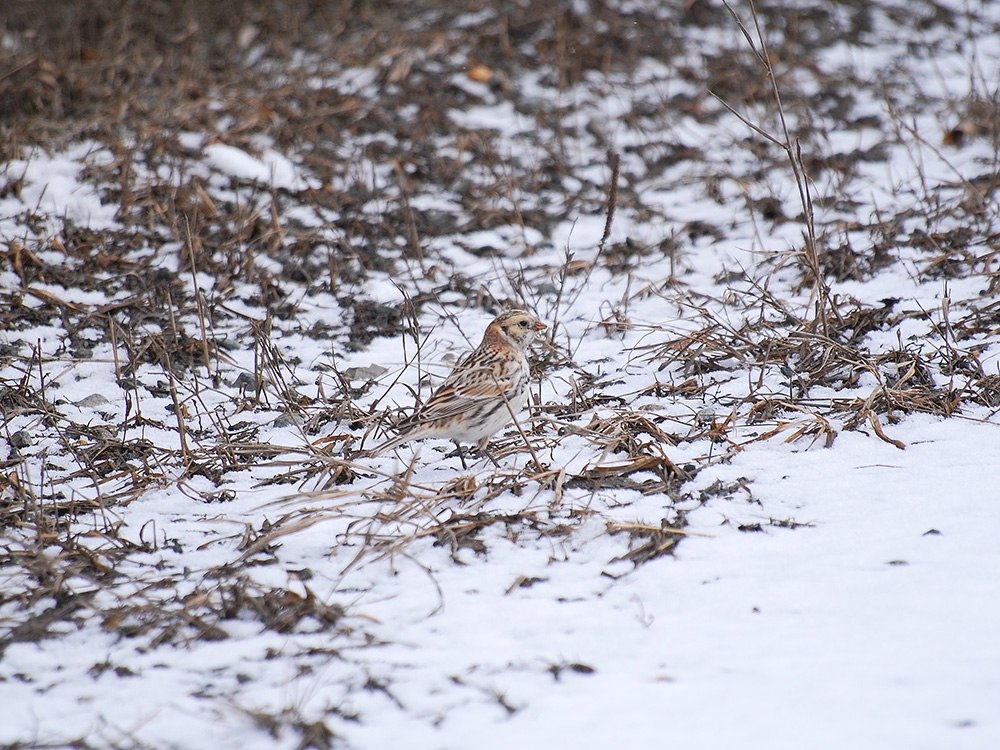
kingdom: Animalia
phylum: Chordata
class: Aves
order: Passeriformes
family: Calcariidae
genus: Calcarius
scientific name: Calcarius lapponicus
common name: Lapland longspur
